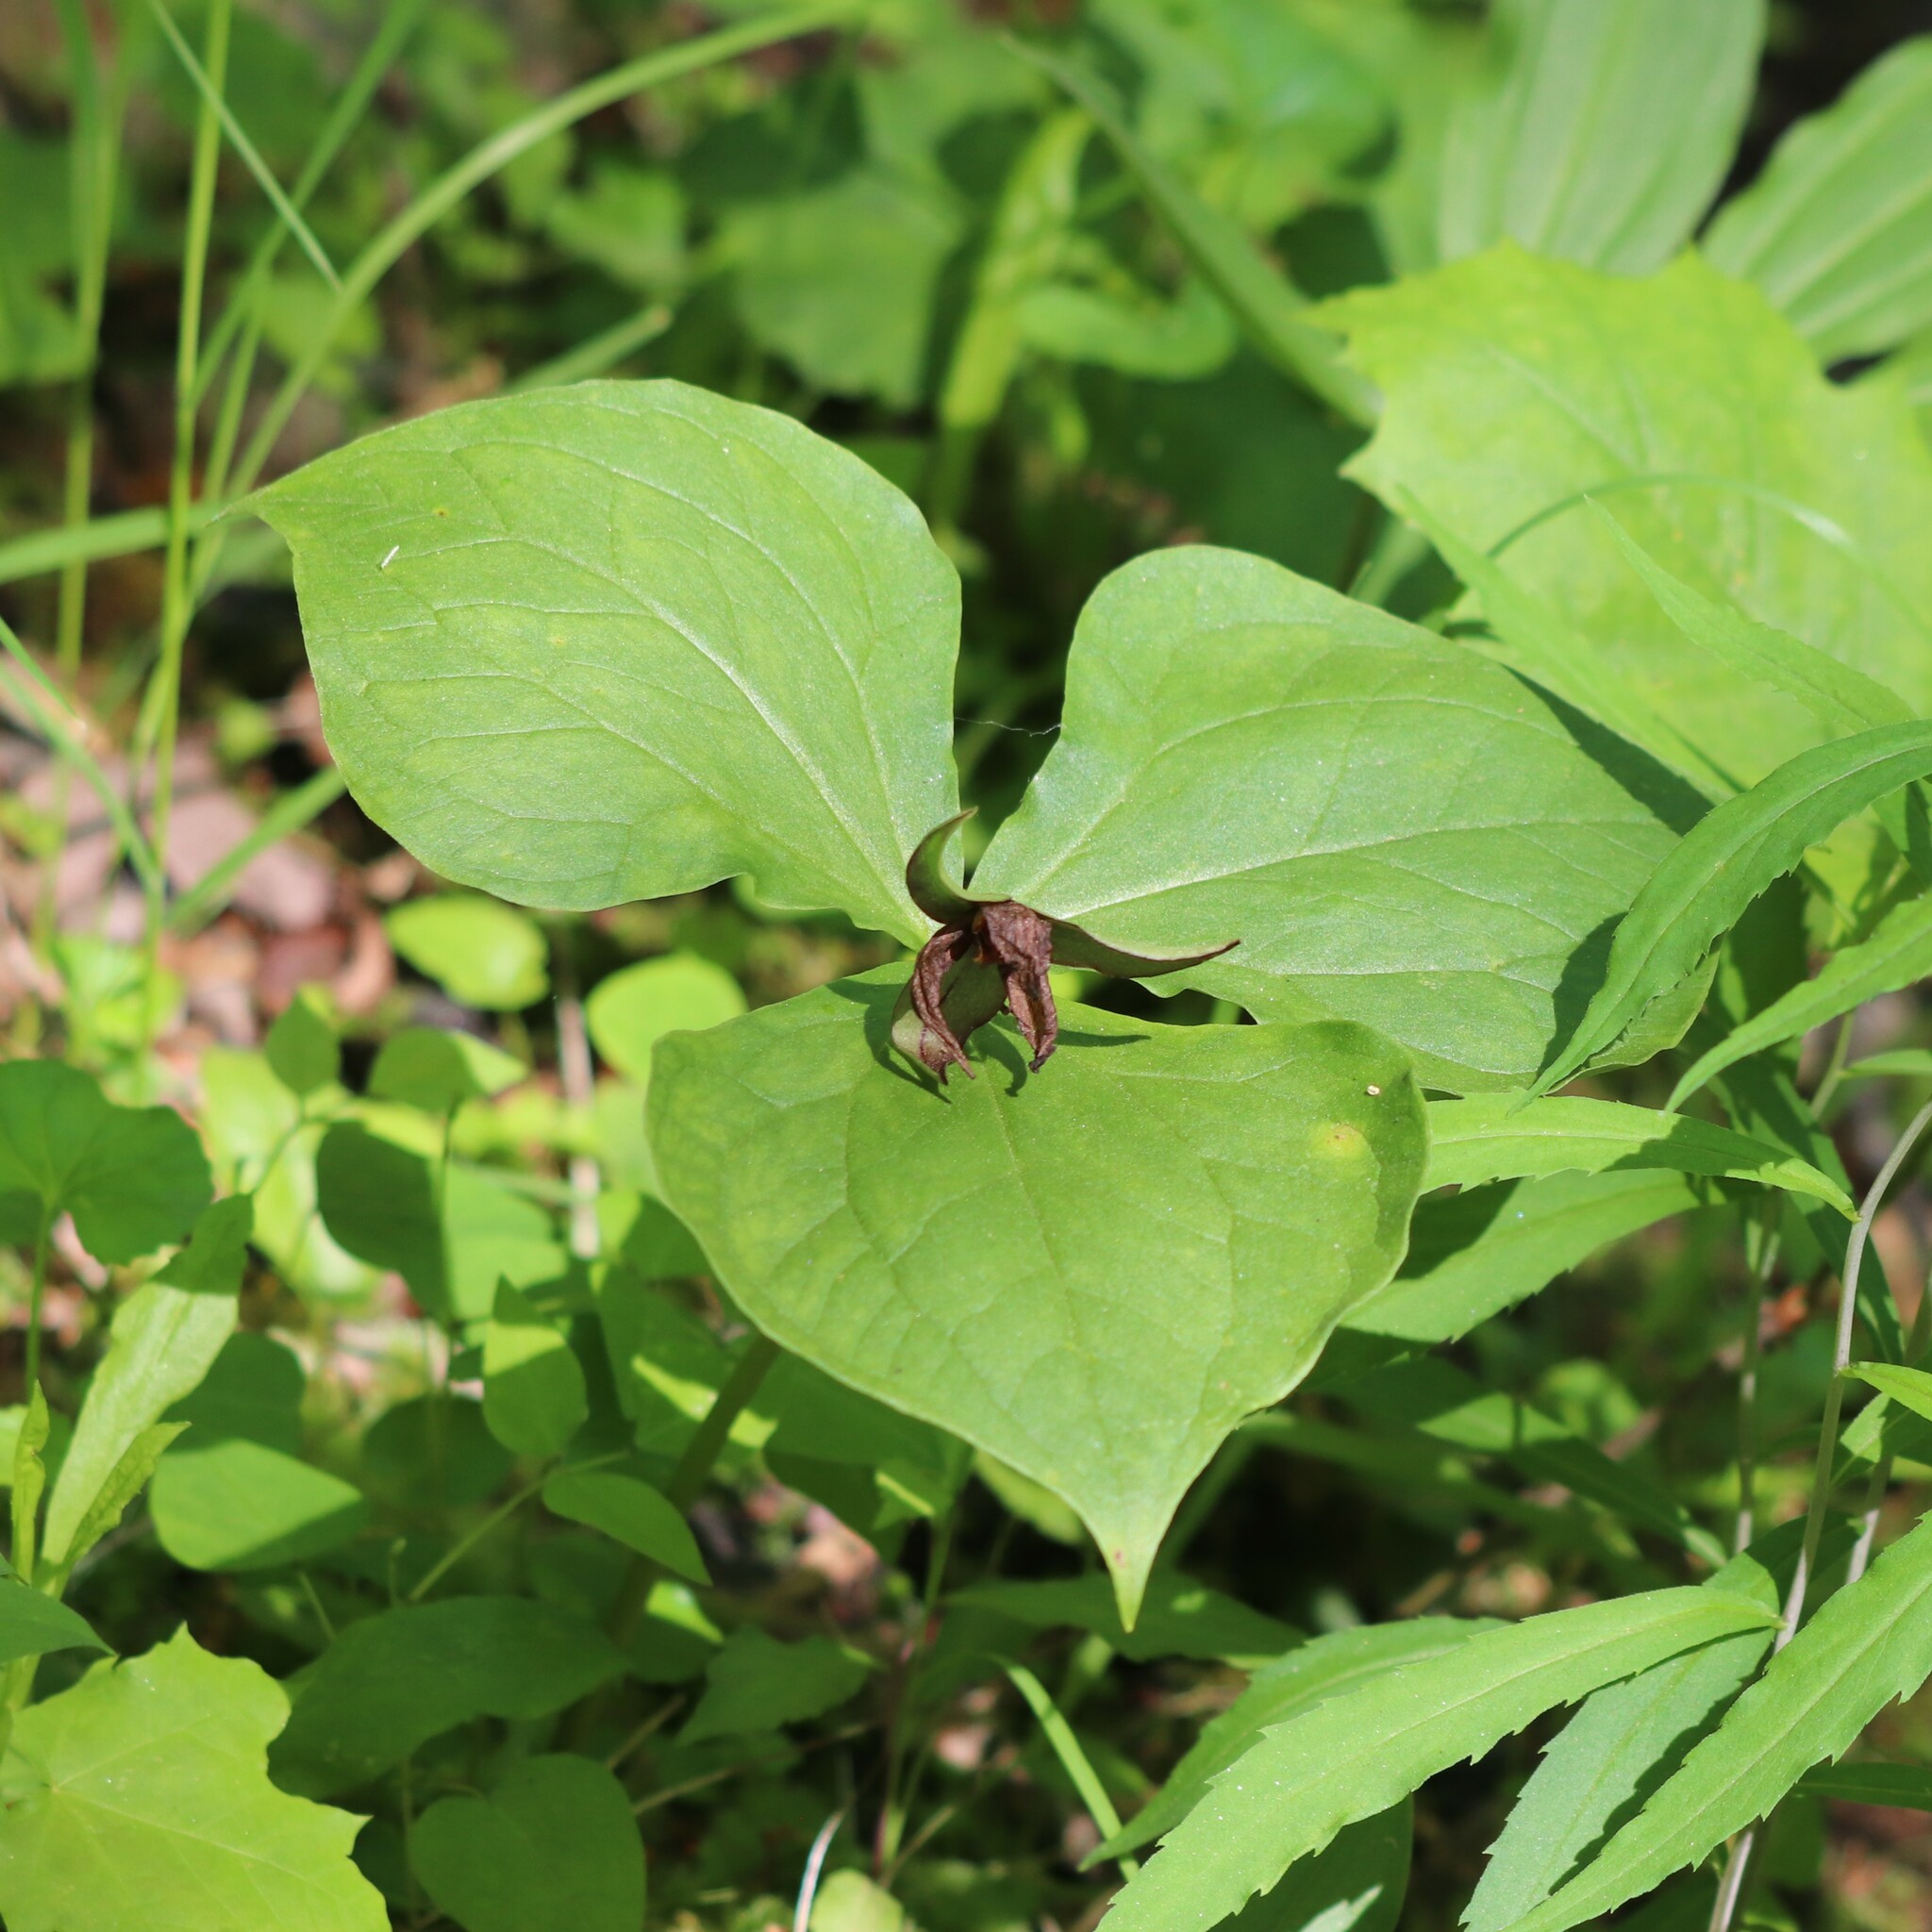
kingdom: Plantae
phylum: Tracheophyta
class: Liliopsida
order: Liliales
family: Melanthiaceae
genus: Trillium
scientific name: Trillium erectum
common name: Purple trillium
